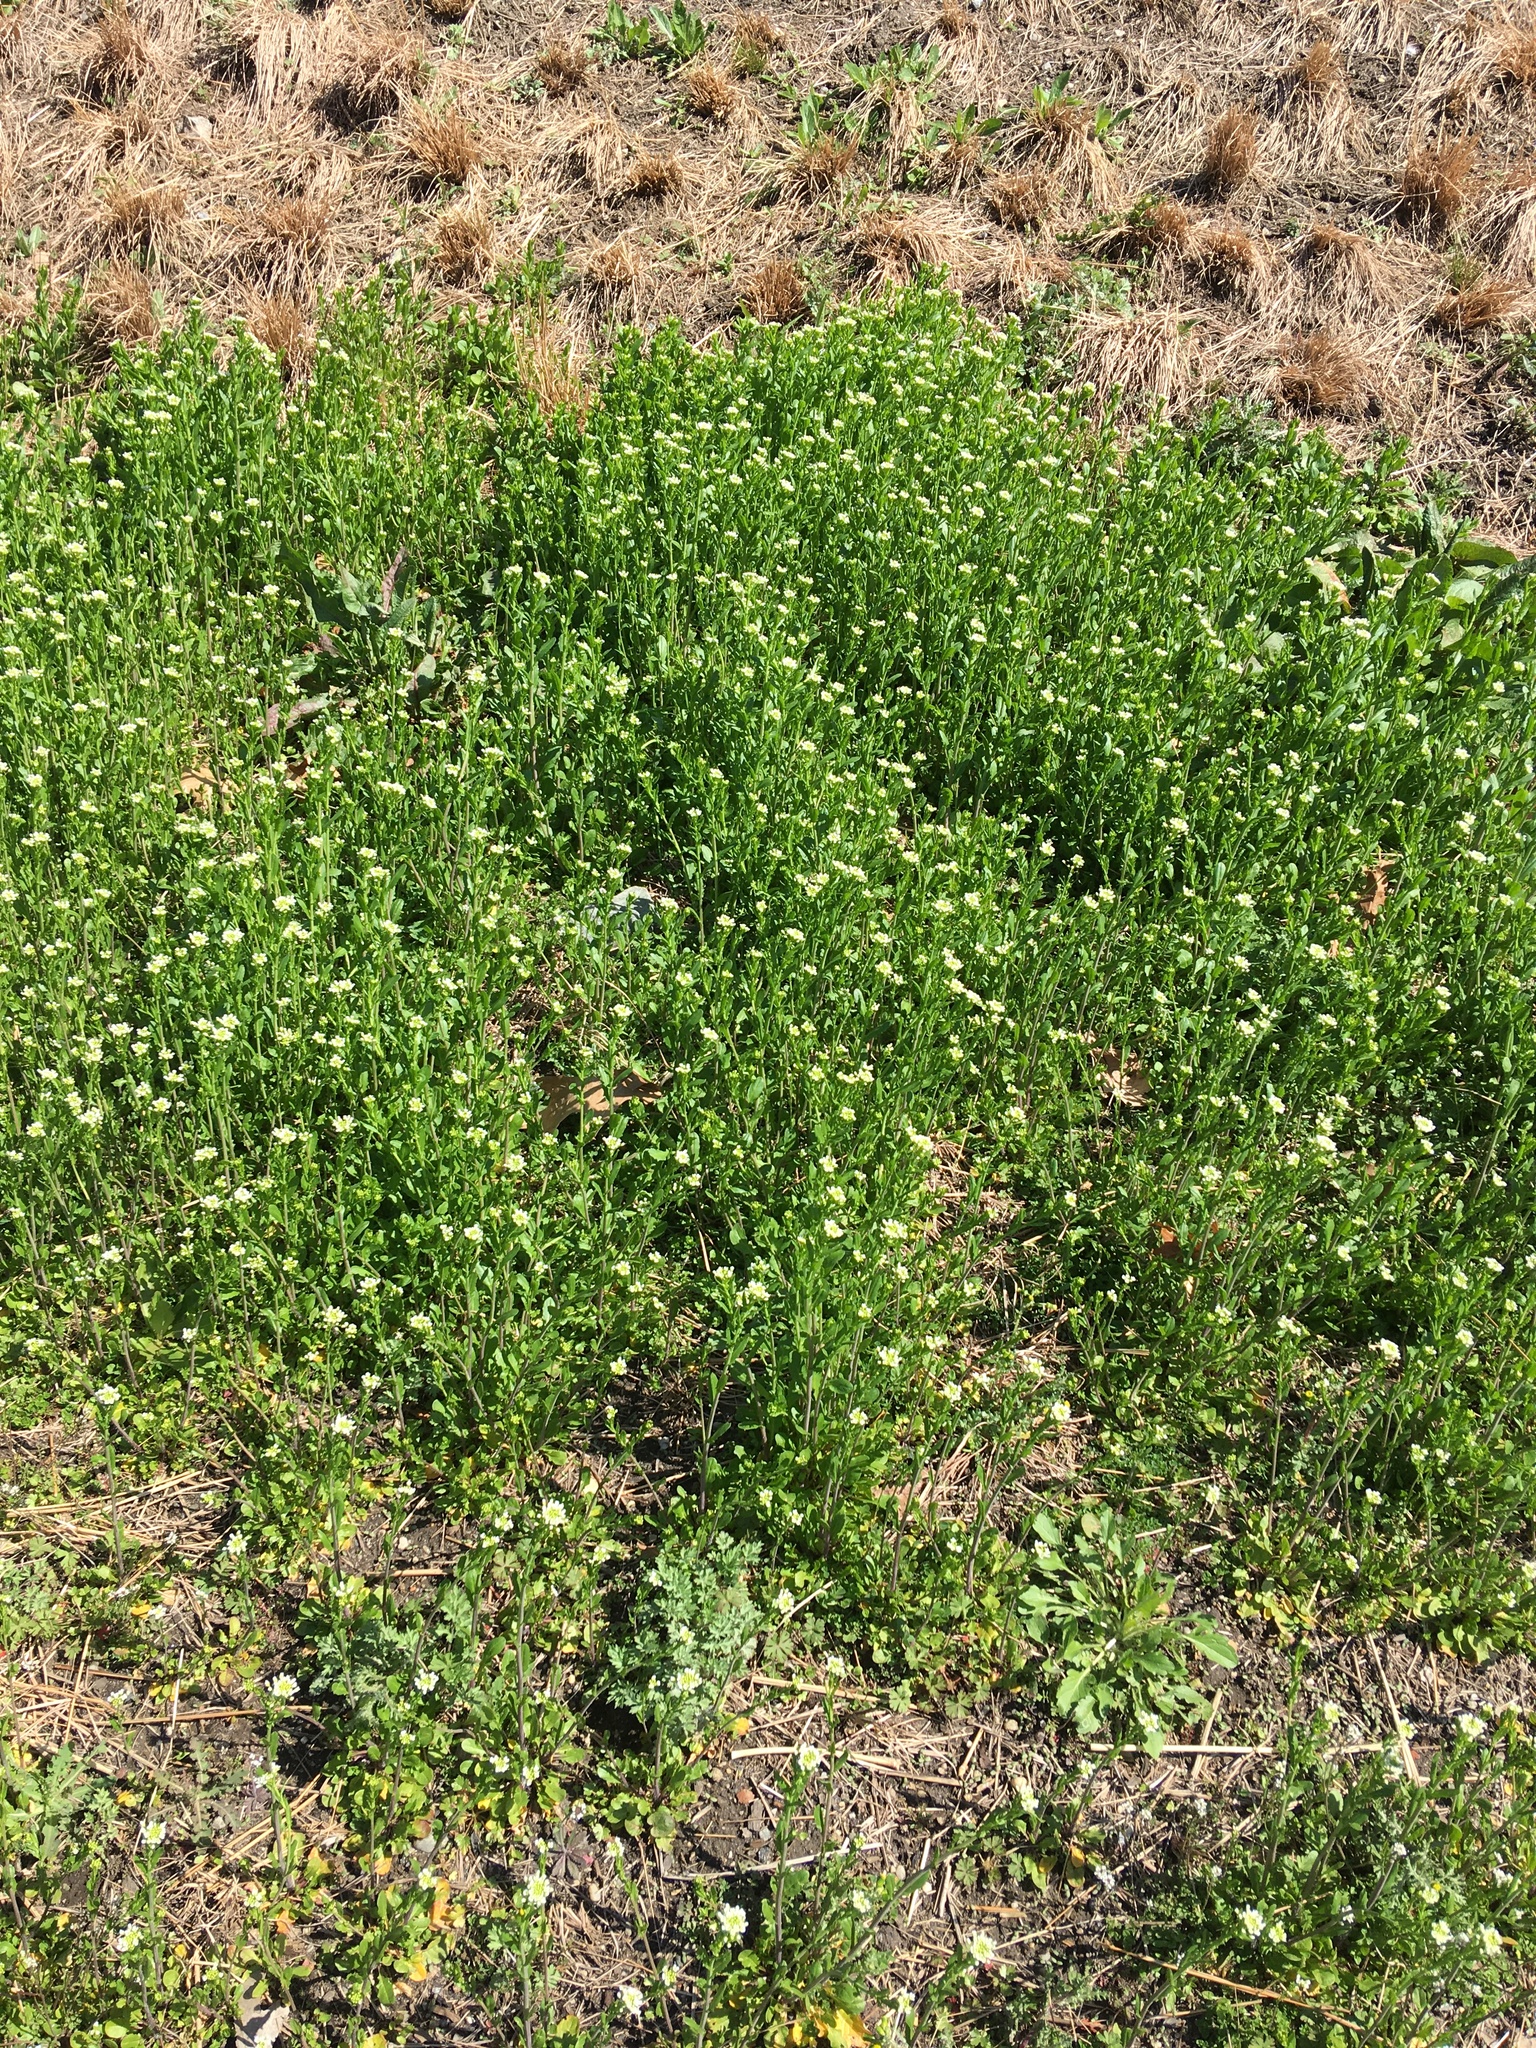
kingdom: Plantae
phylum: Tracheophyta
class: Magnoliopsida
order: Brassicales
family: Brassicaceae
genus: Mummenhoffia
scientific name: Mummenhoffia alliacea
